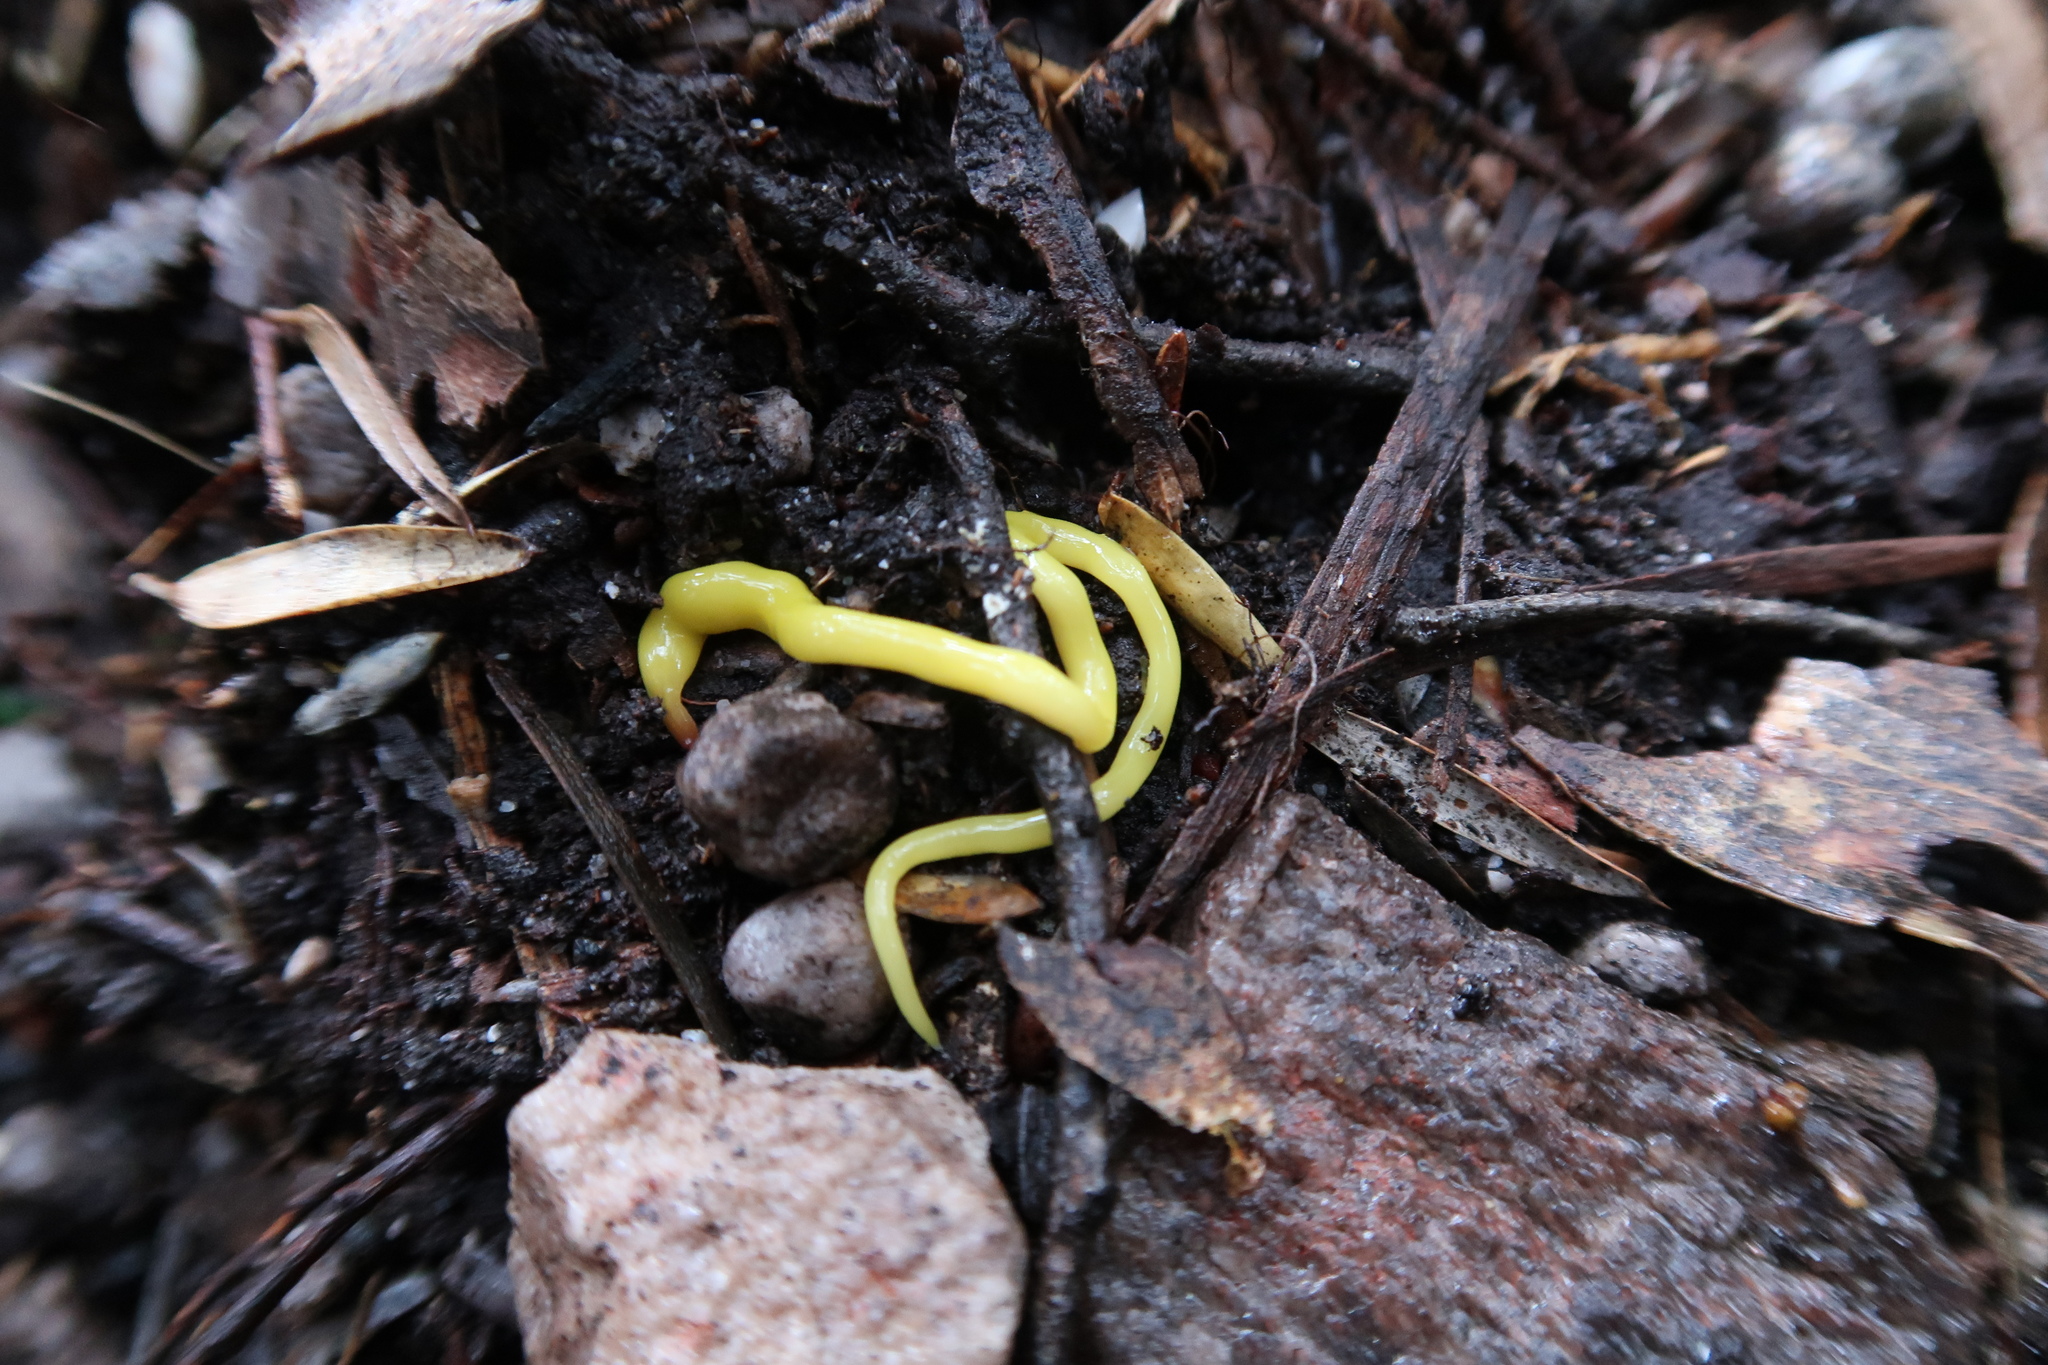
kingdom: Animalia
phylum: Platyhelminthes
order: Tricladida
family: Geoplanidae
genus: Fletchamia
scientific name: Fletchamia sugdeni
